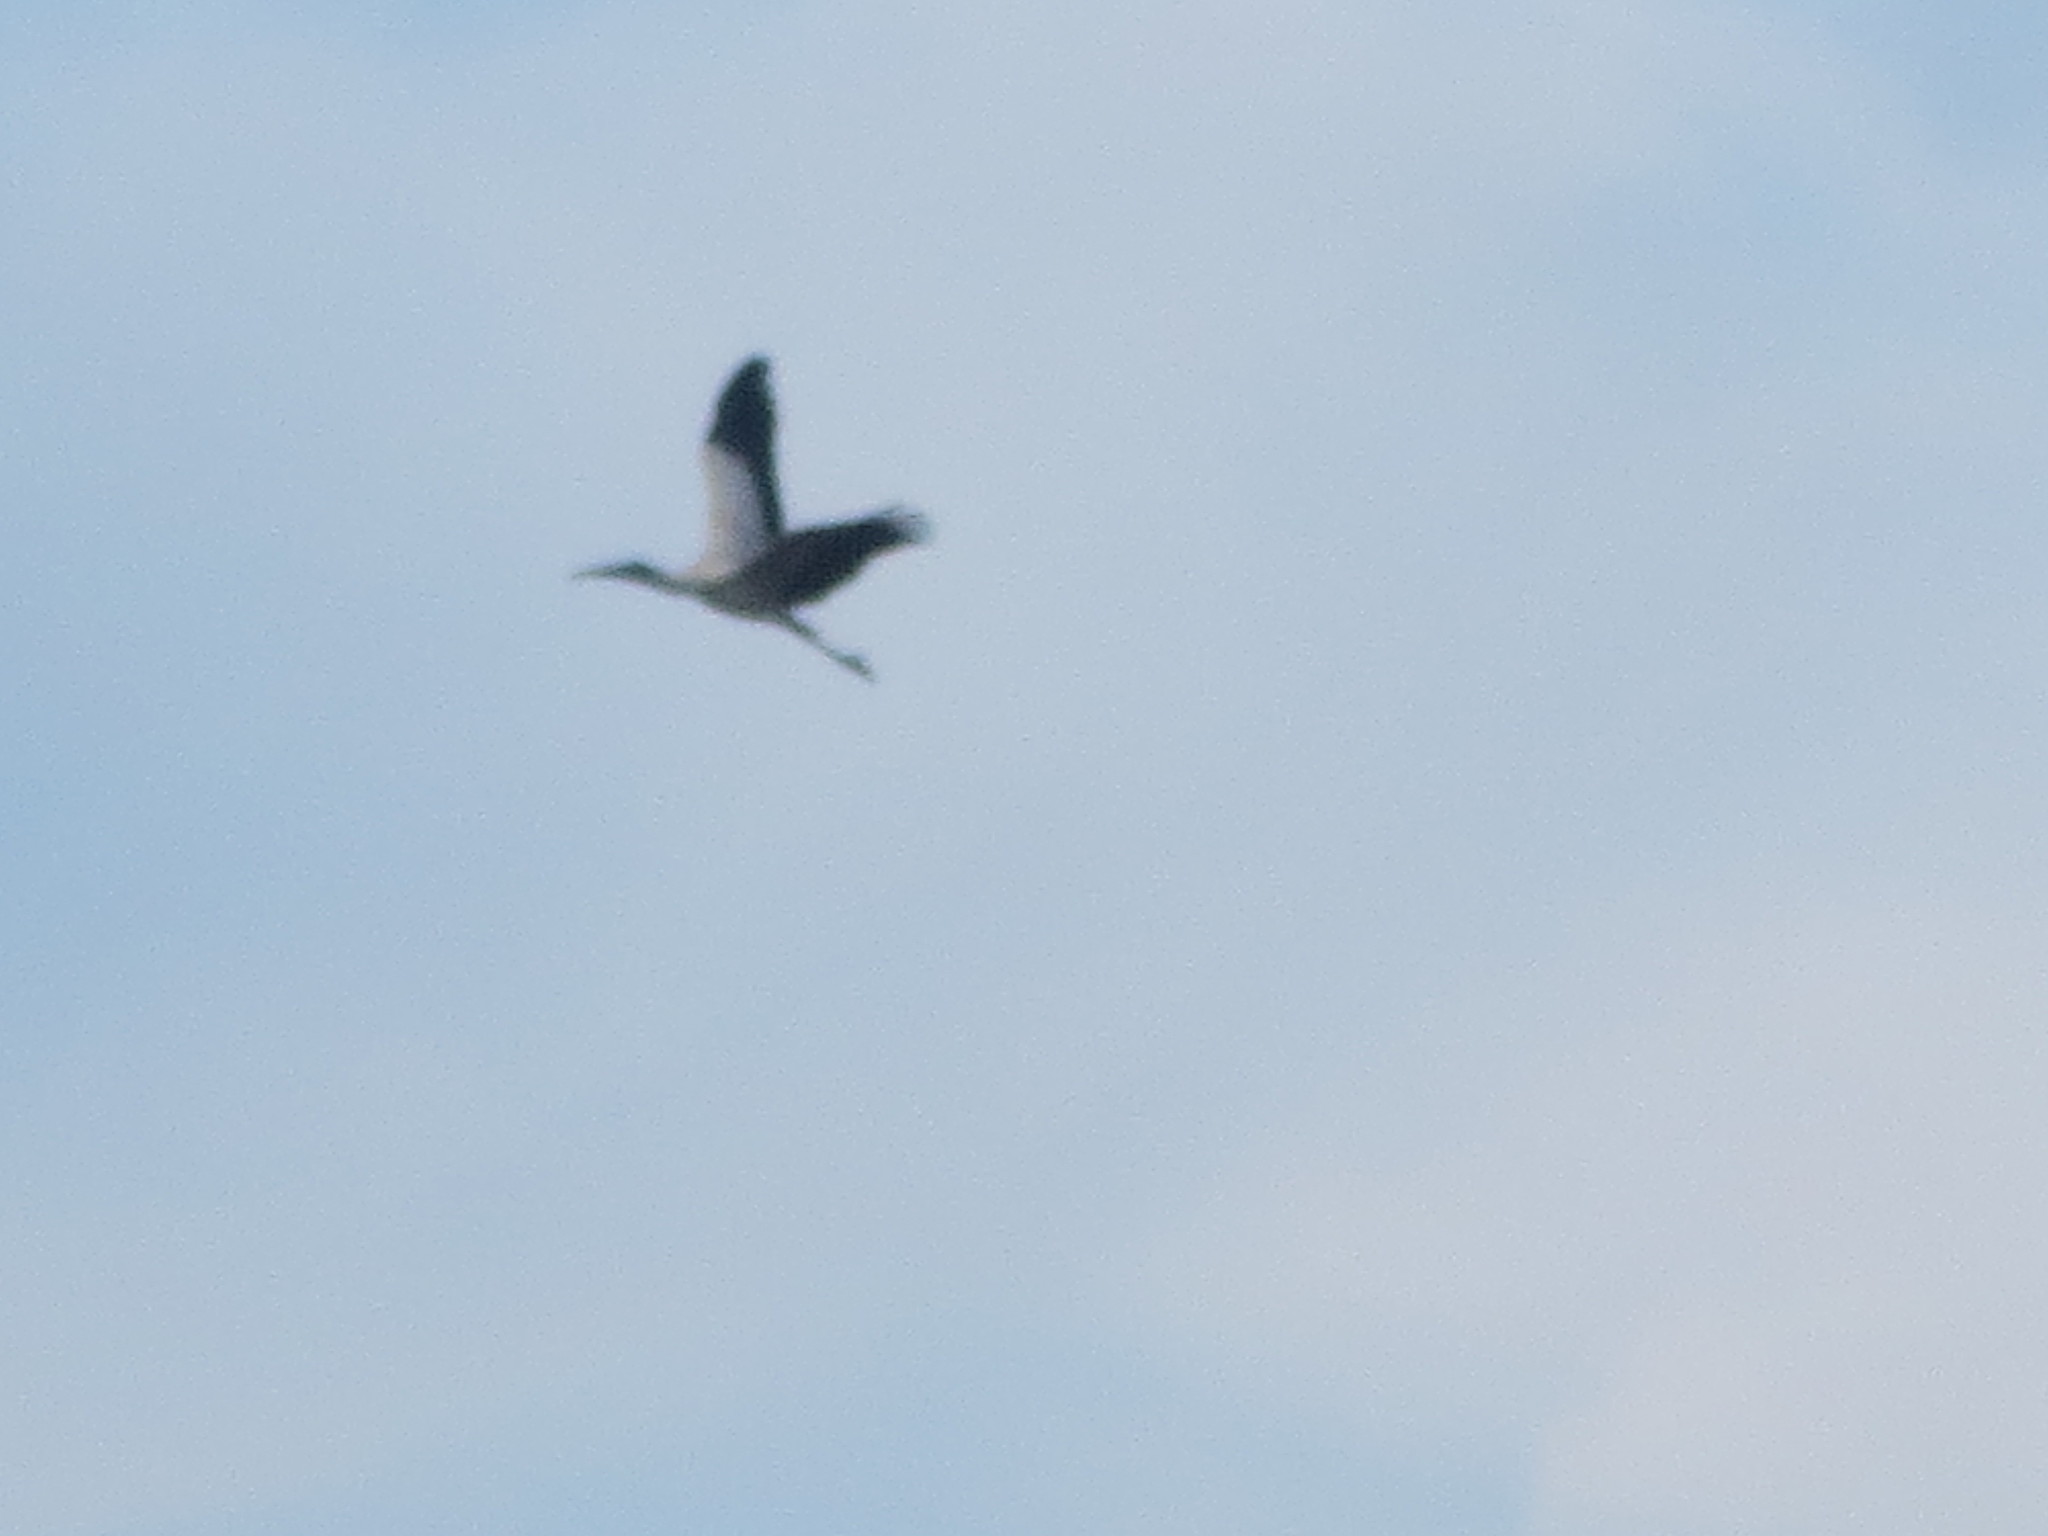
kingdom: Animalia
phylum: Chordata
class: Aves
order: Ciconiiformes
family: Ciconiidae
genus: Mycteria
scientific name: Mycteria americana
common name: Wood stork
